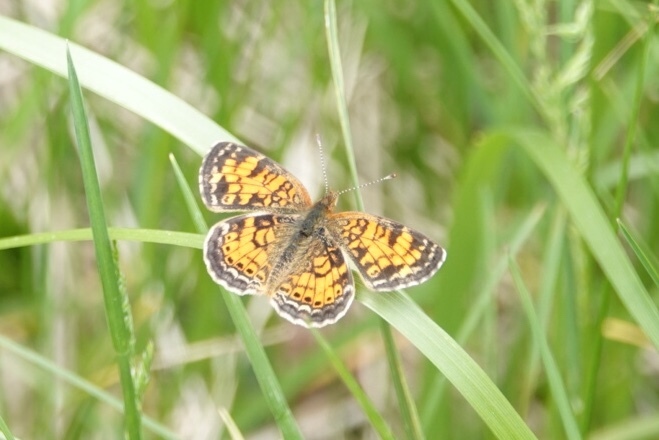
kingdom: Animalia
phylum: Arthropoda
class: Insecta
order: Lepidoptera
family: Nymphalidae
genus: Phyciodes
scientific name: Phyciodes tharos
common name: Pearl crescent
